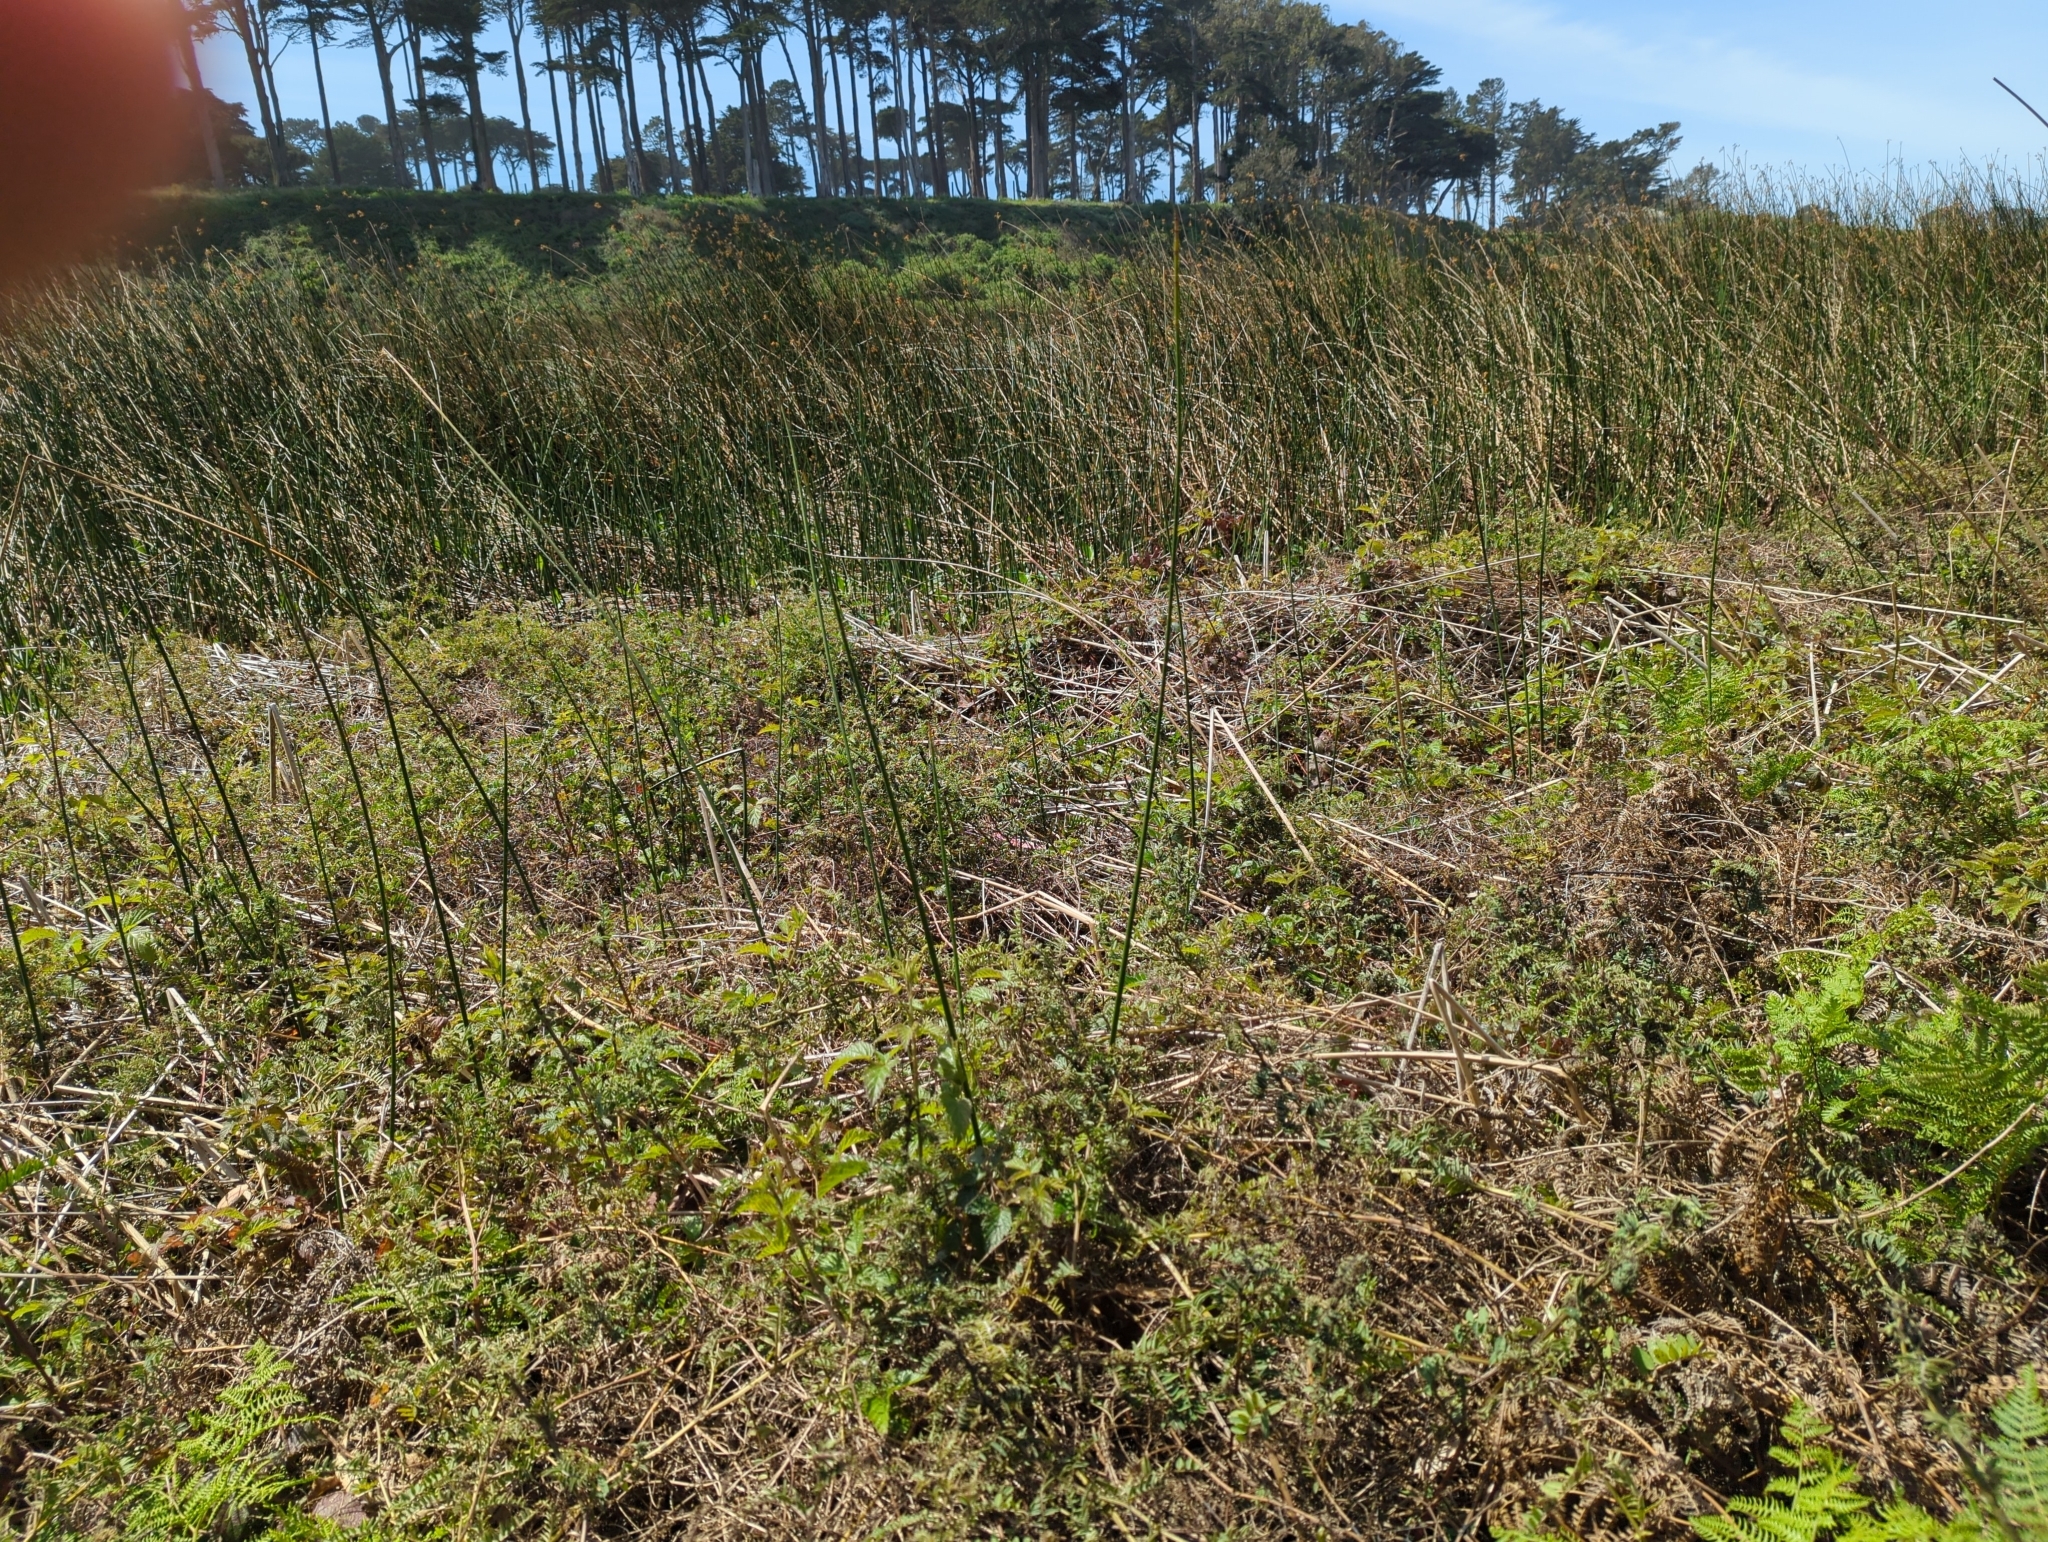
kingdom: Plantae
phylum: Tracheophyta
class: Magnoliopsida
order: Fabales
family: Fabaceae
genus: Vicia
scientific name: Vicia
